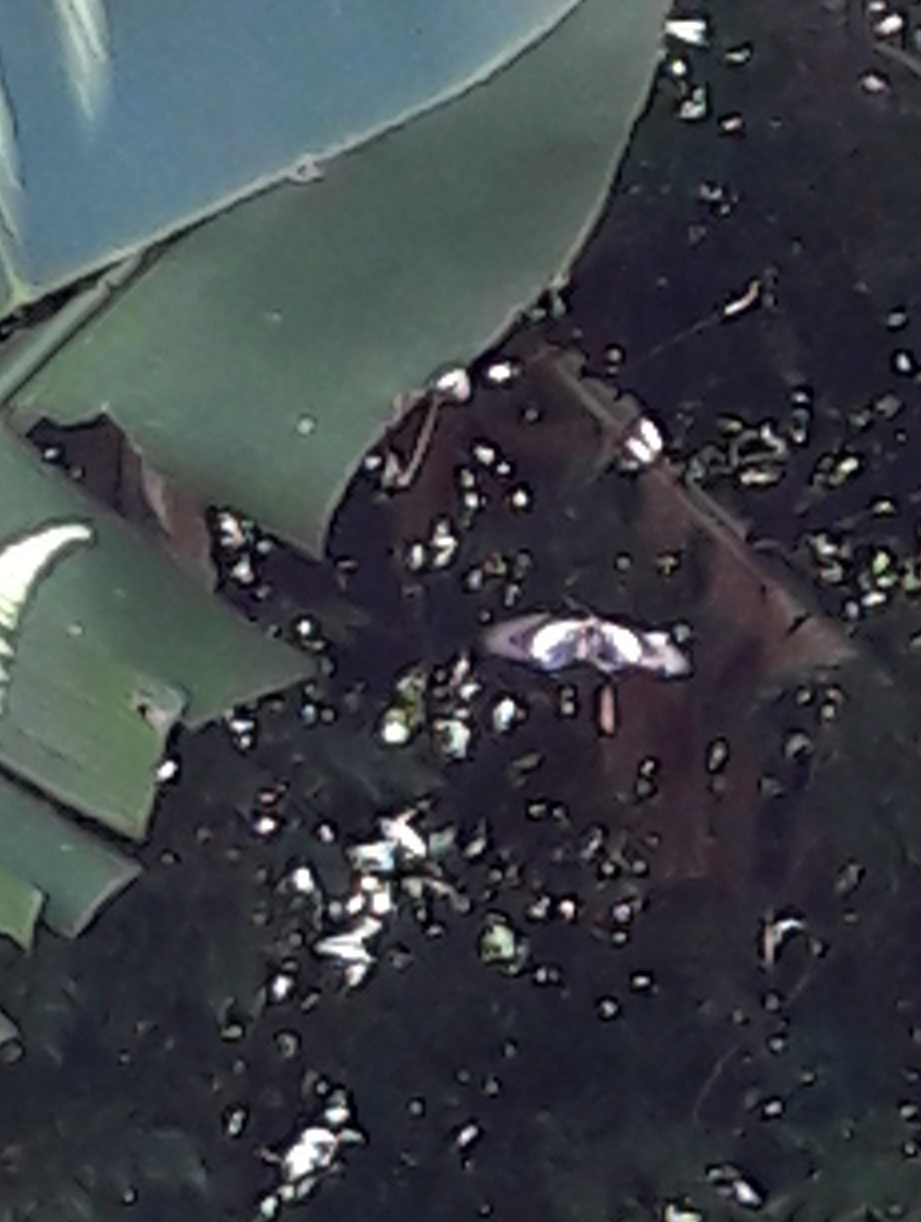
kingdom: Animalia
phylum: Arthropoda
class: Insecta
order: Lepidoptera
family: Papilionidae
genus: Battus
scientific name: Battus crassus
